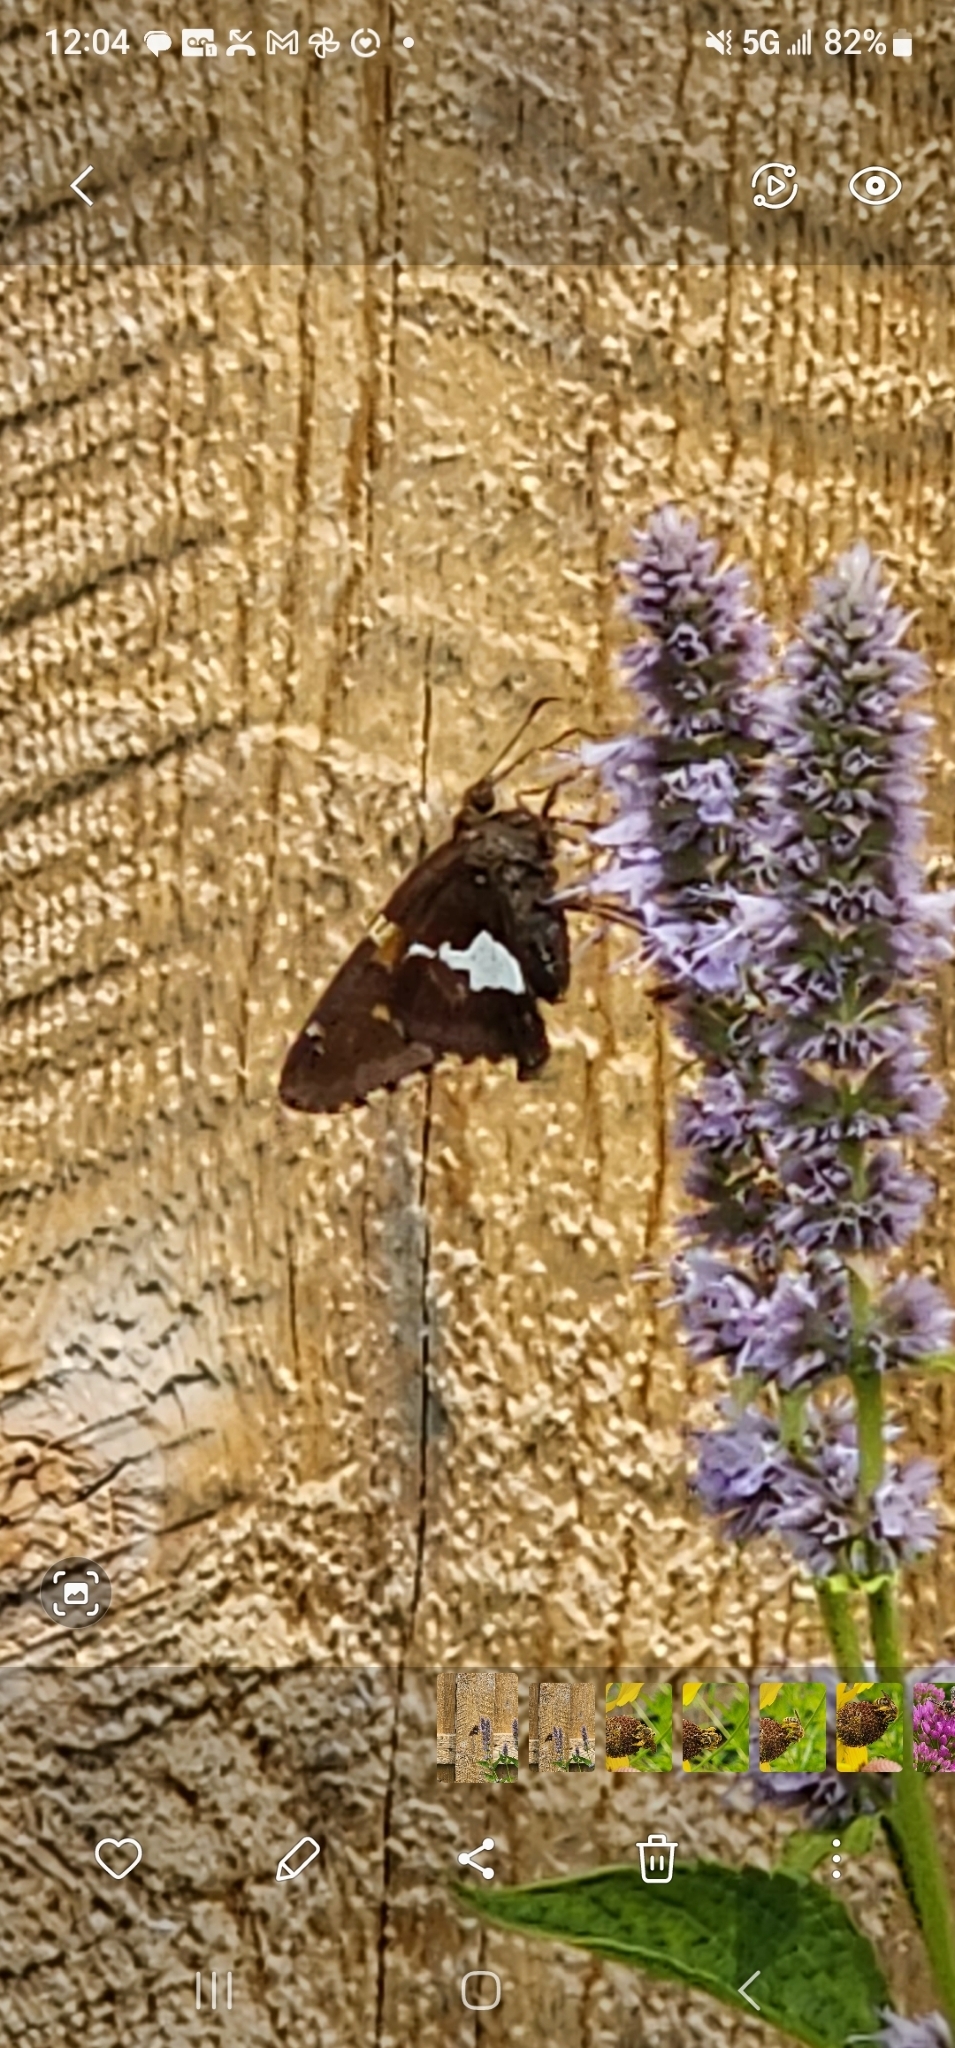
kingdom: Animalia
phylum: Arthropoda
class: Insecta
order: Lepidoptera
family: Hesperiidae
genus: Epargyreus
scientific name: Epargyreus clarus
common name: Silver-spotted skipper
